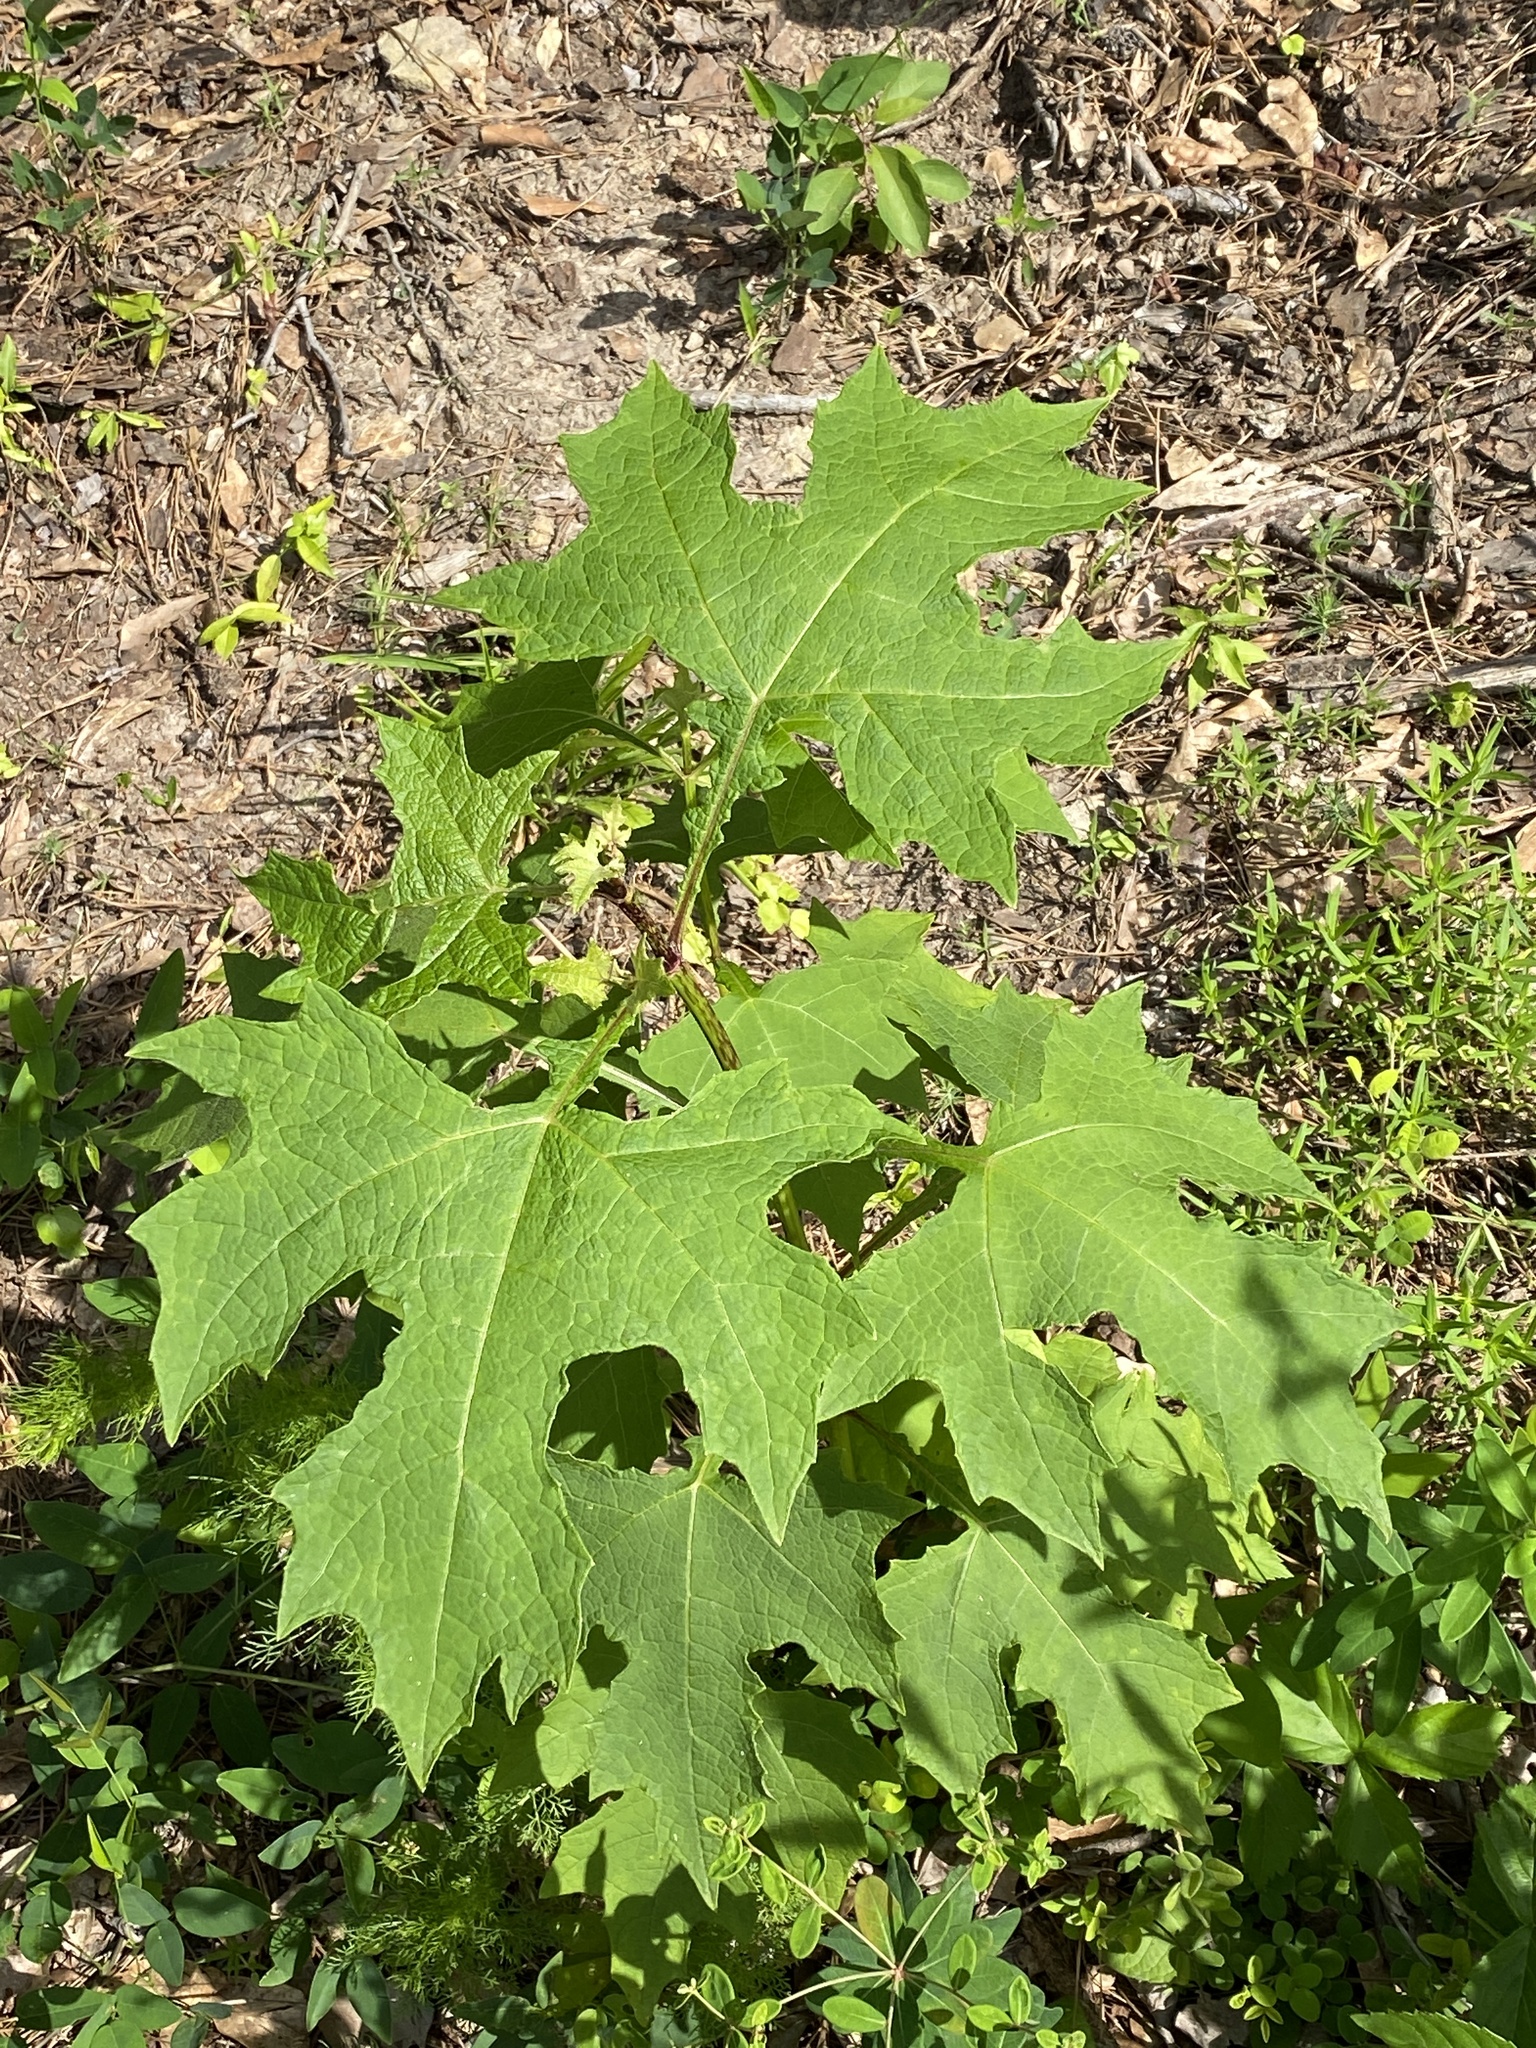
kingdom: Plantae
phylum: Tracheophyta
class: Magnoliopsida
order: Asterales
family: Asteraceae
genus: Smallanthus
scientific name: Smallanthus uvedalia
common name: Bear's-foot
